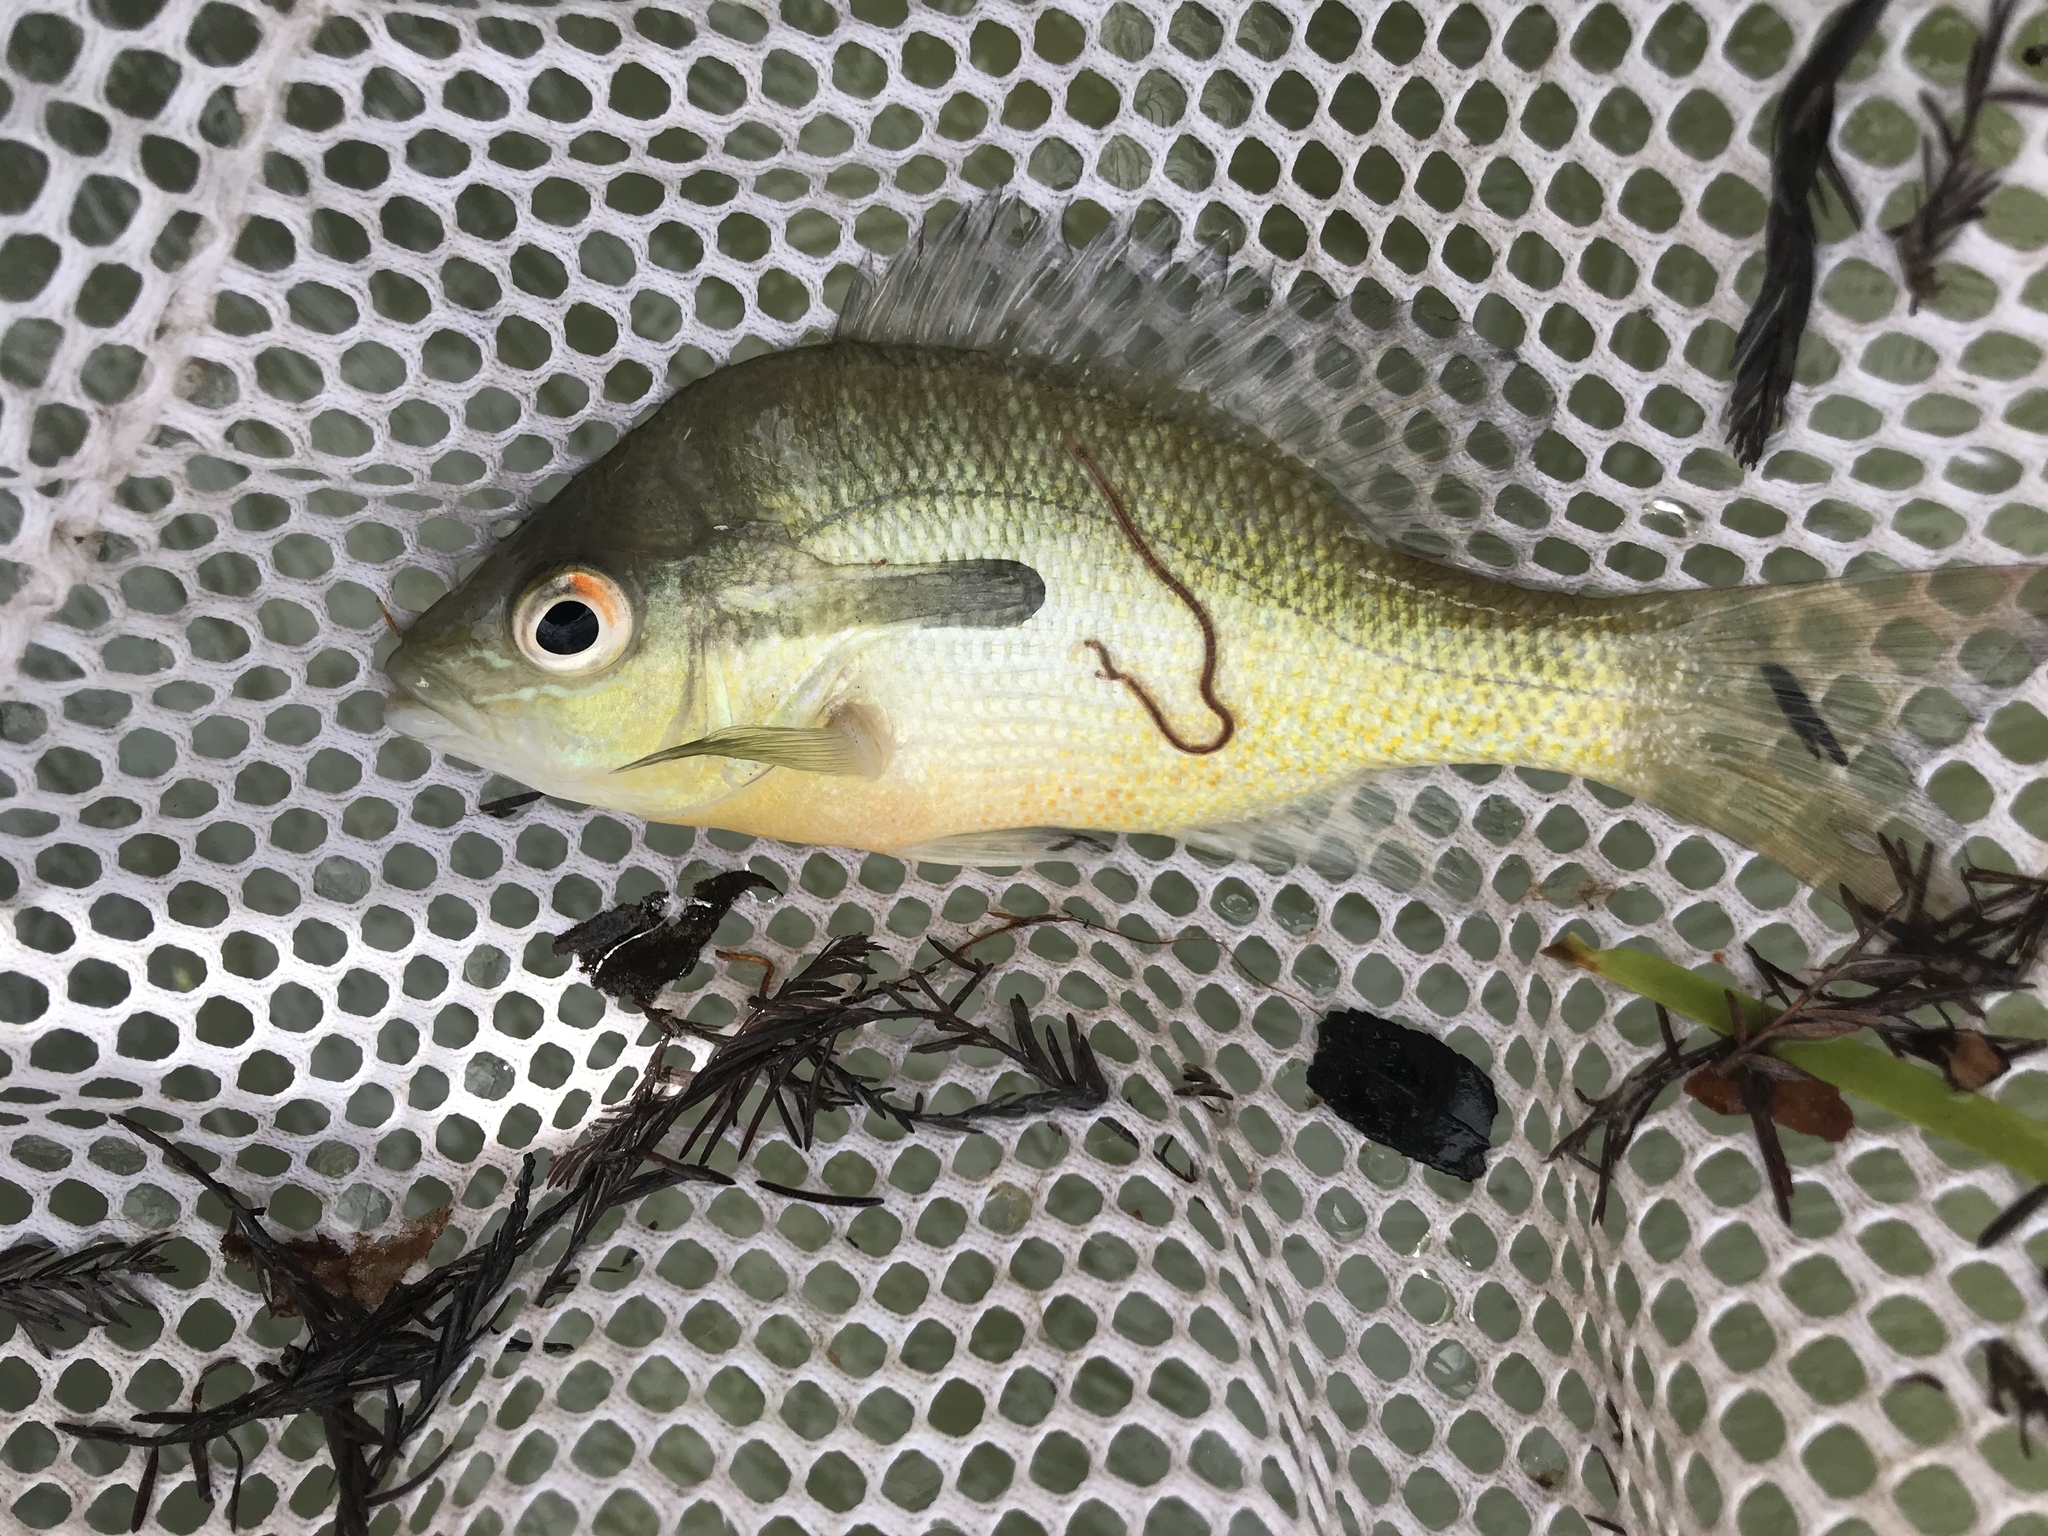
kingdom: Animalia
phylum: Chordata
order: Perciformes
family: Centrarchidae
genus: Lepomis
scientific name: Lepomis auritus
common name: Redbreast sunfish
